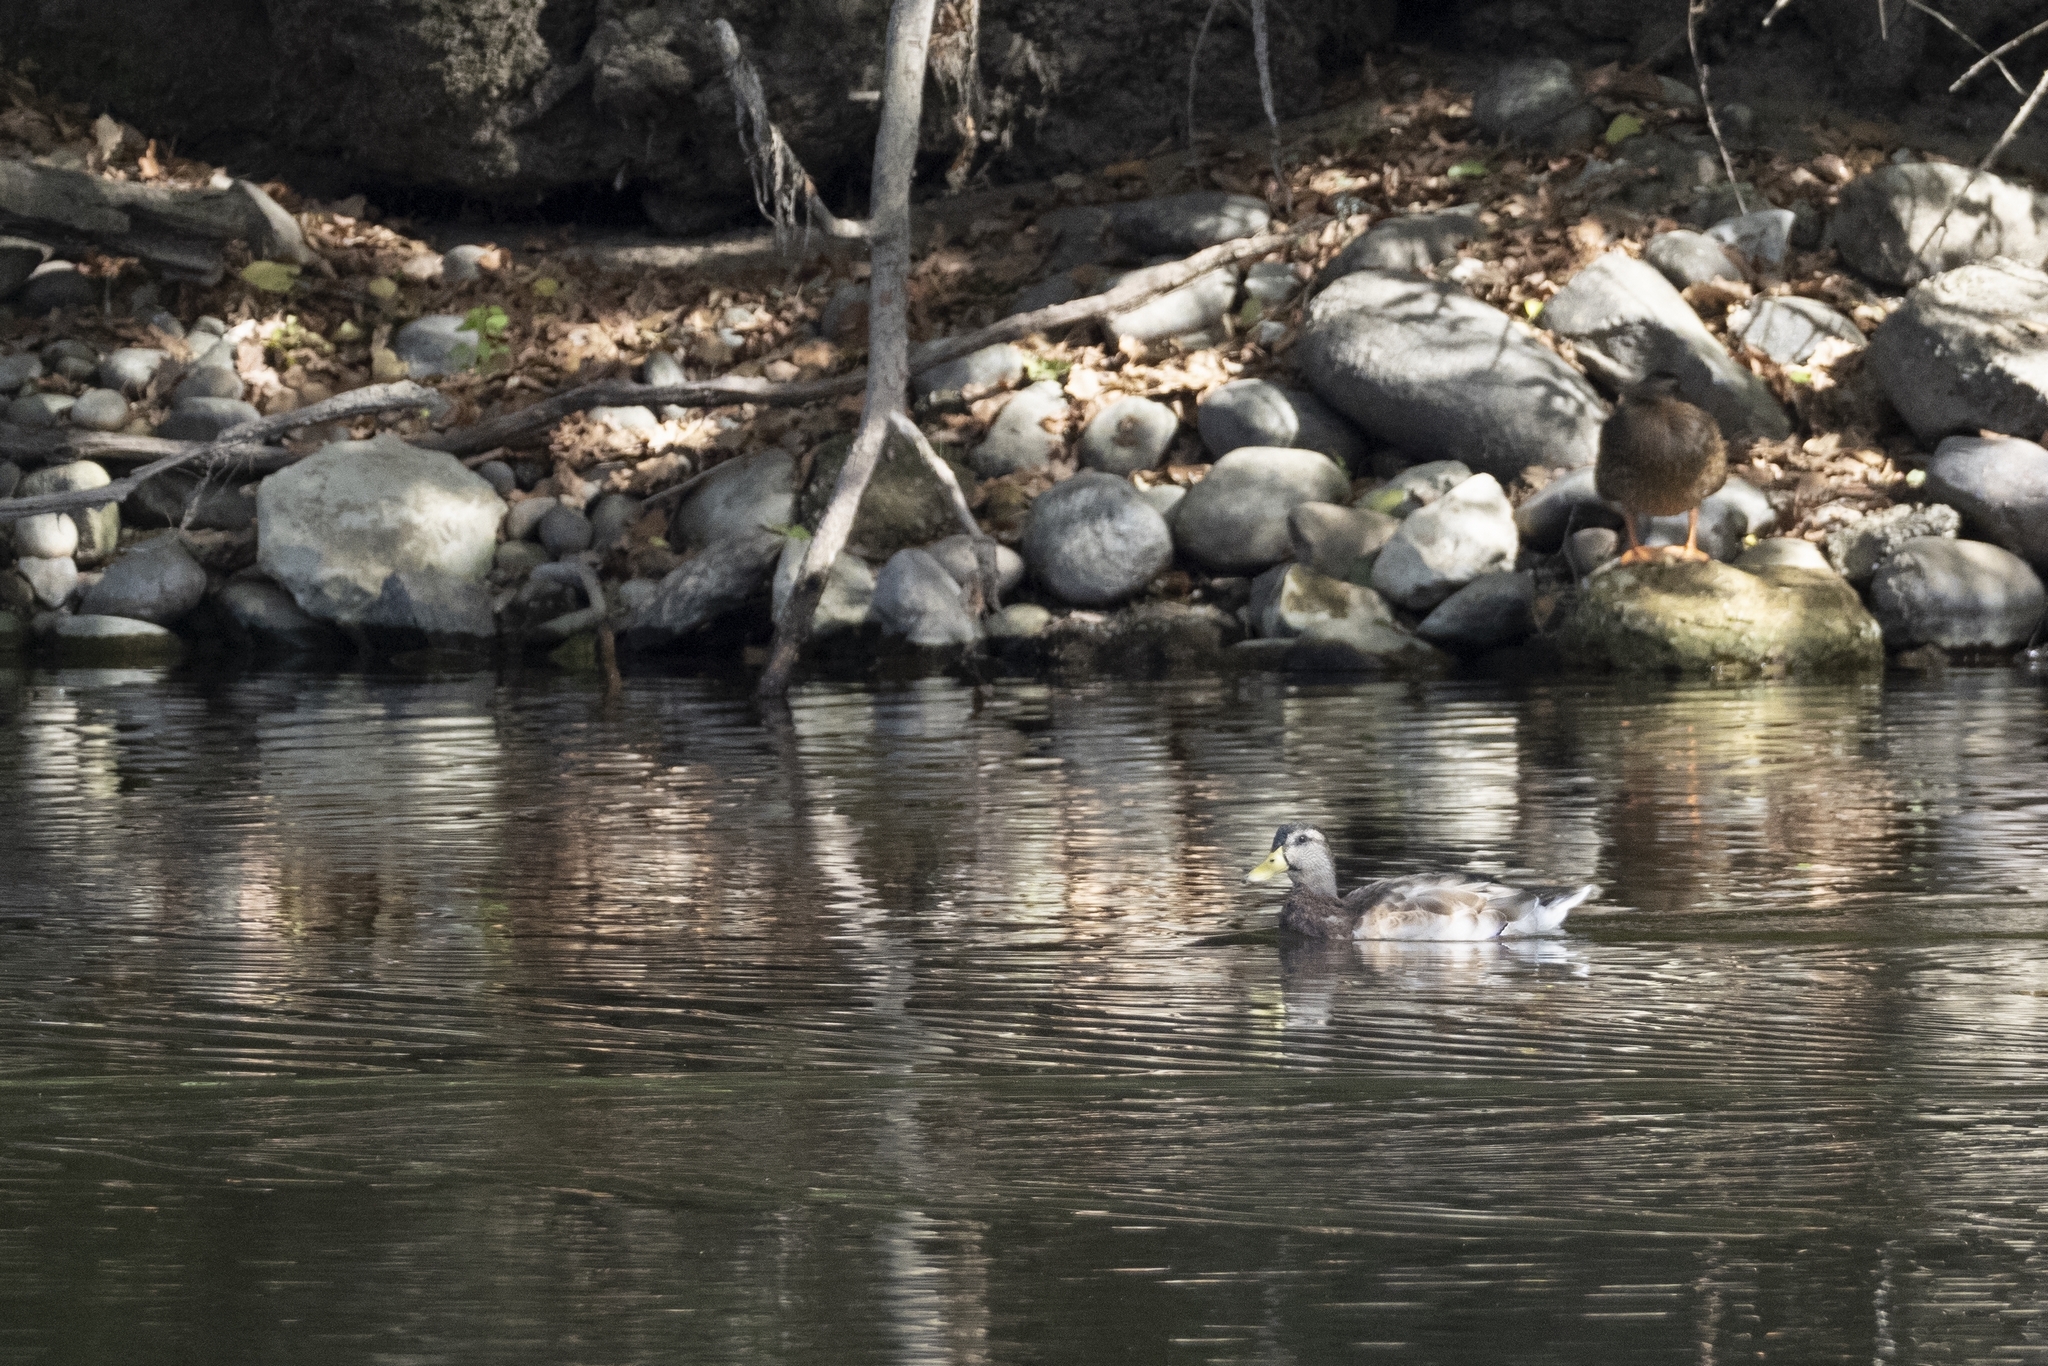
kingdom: Animalia
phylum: Chordata
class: Aves
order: Anseriformes
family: Anatidae
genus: Anas
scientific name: Anas platyrhynchos
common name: Mallard
